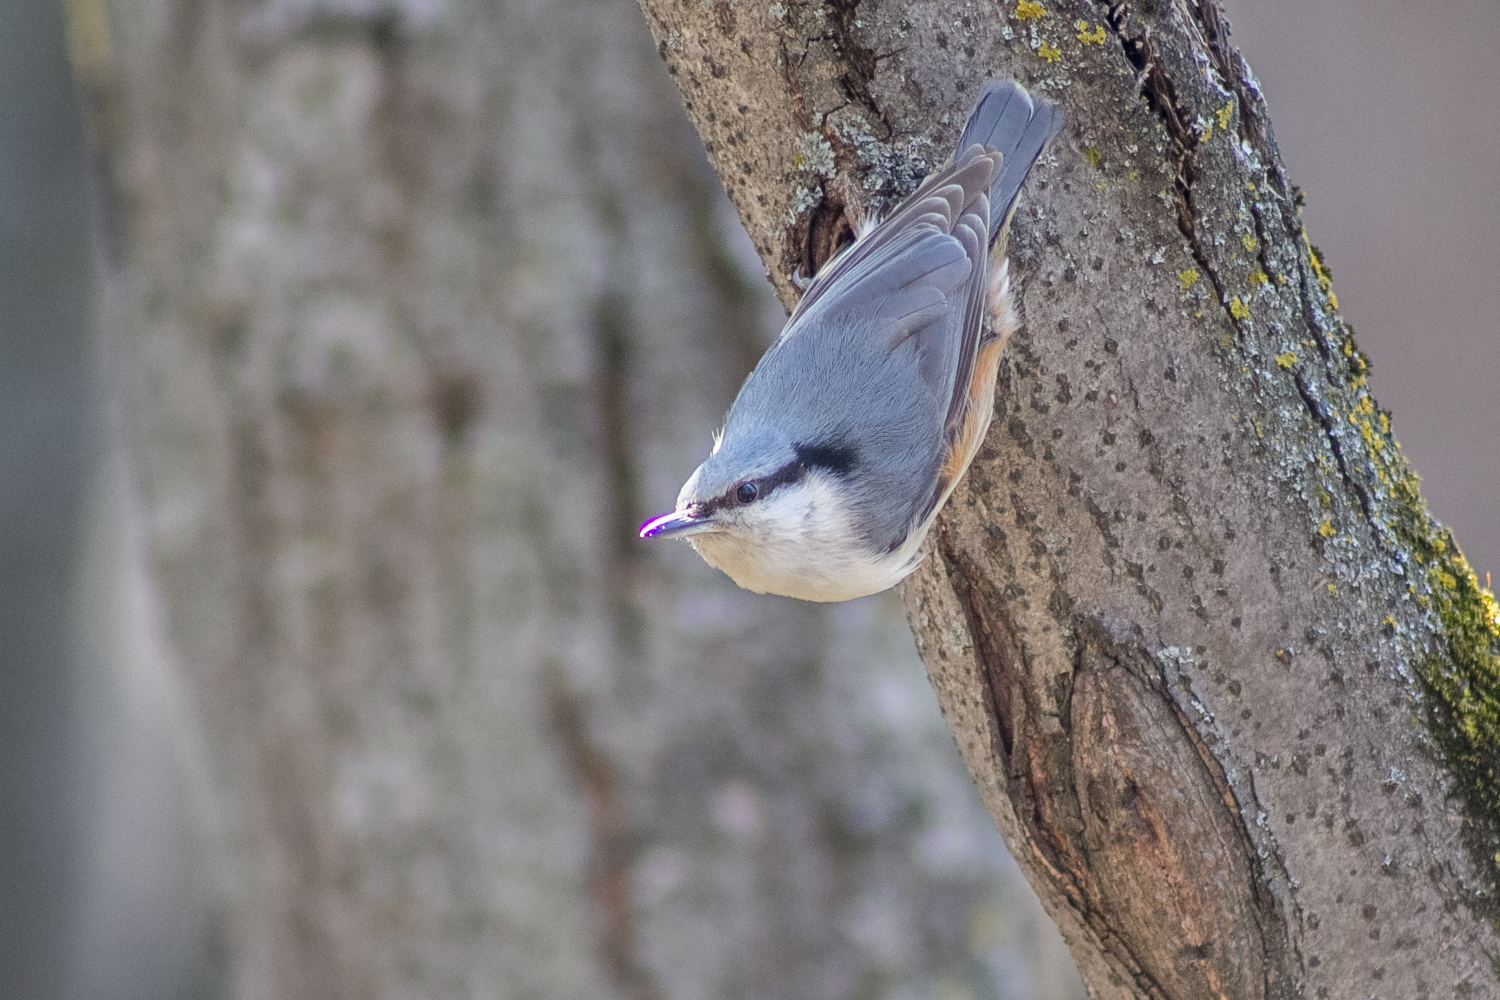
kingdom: Animalia
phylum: Chordata
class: Aves
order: Passeriformes
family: Sittidae
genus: Sitta
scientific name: Sitta europaea
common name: Eurasian nuthatch
